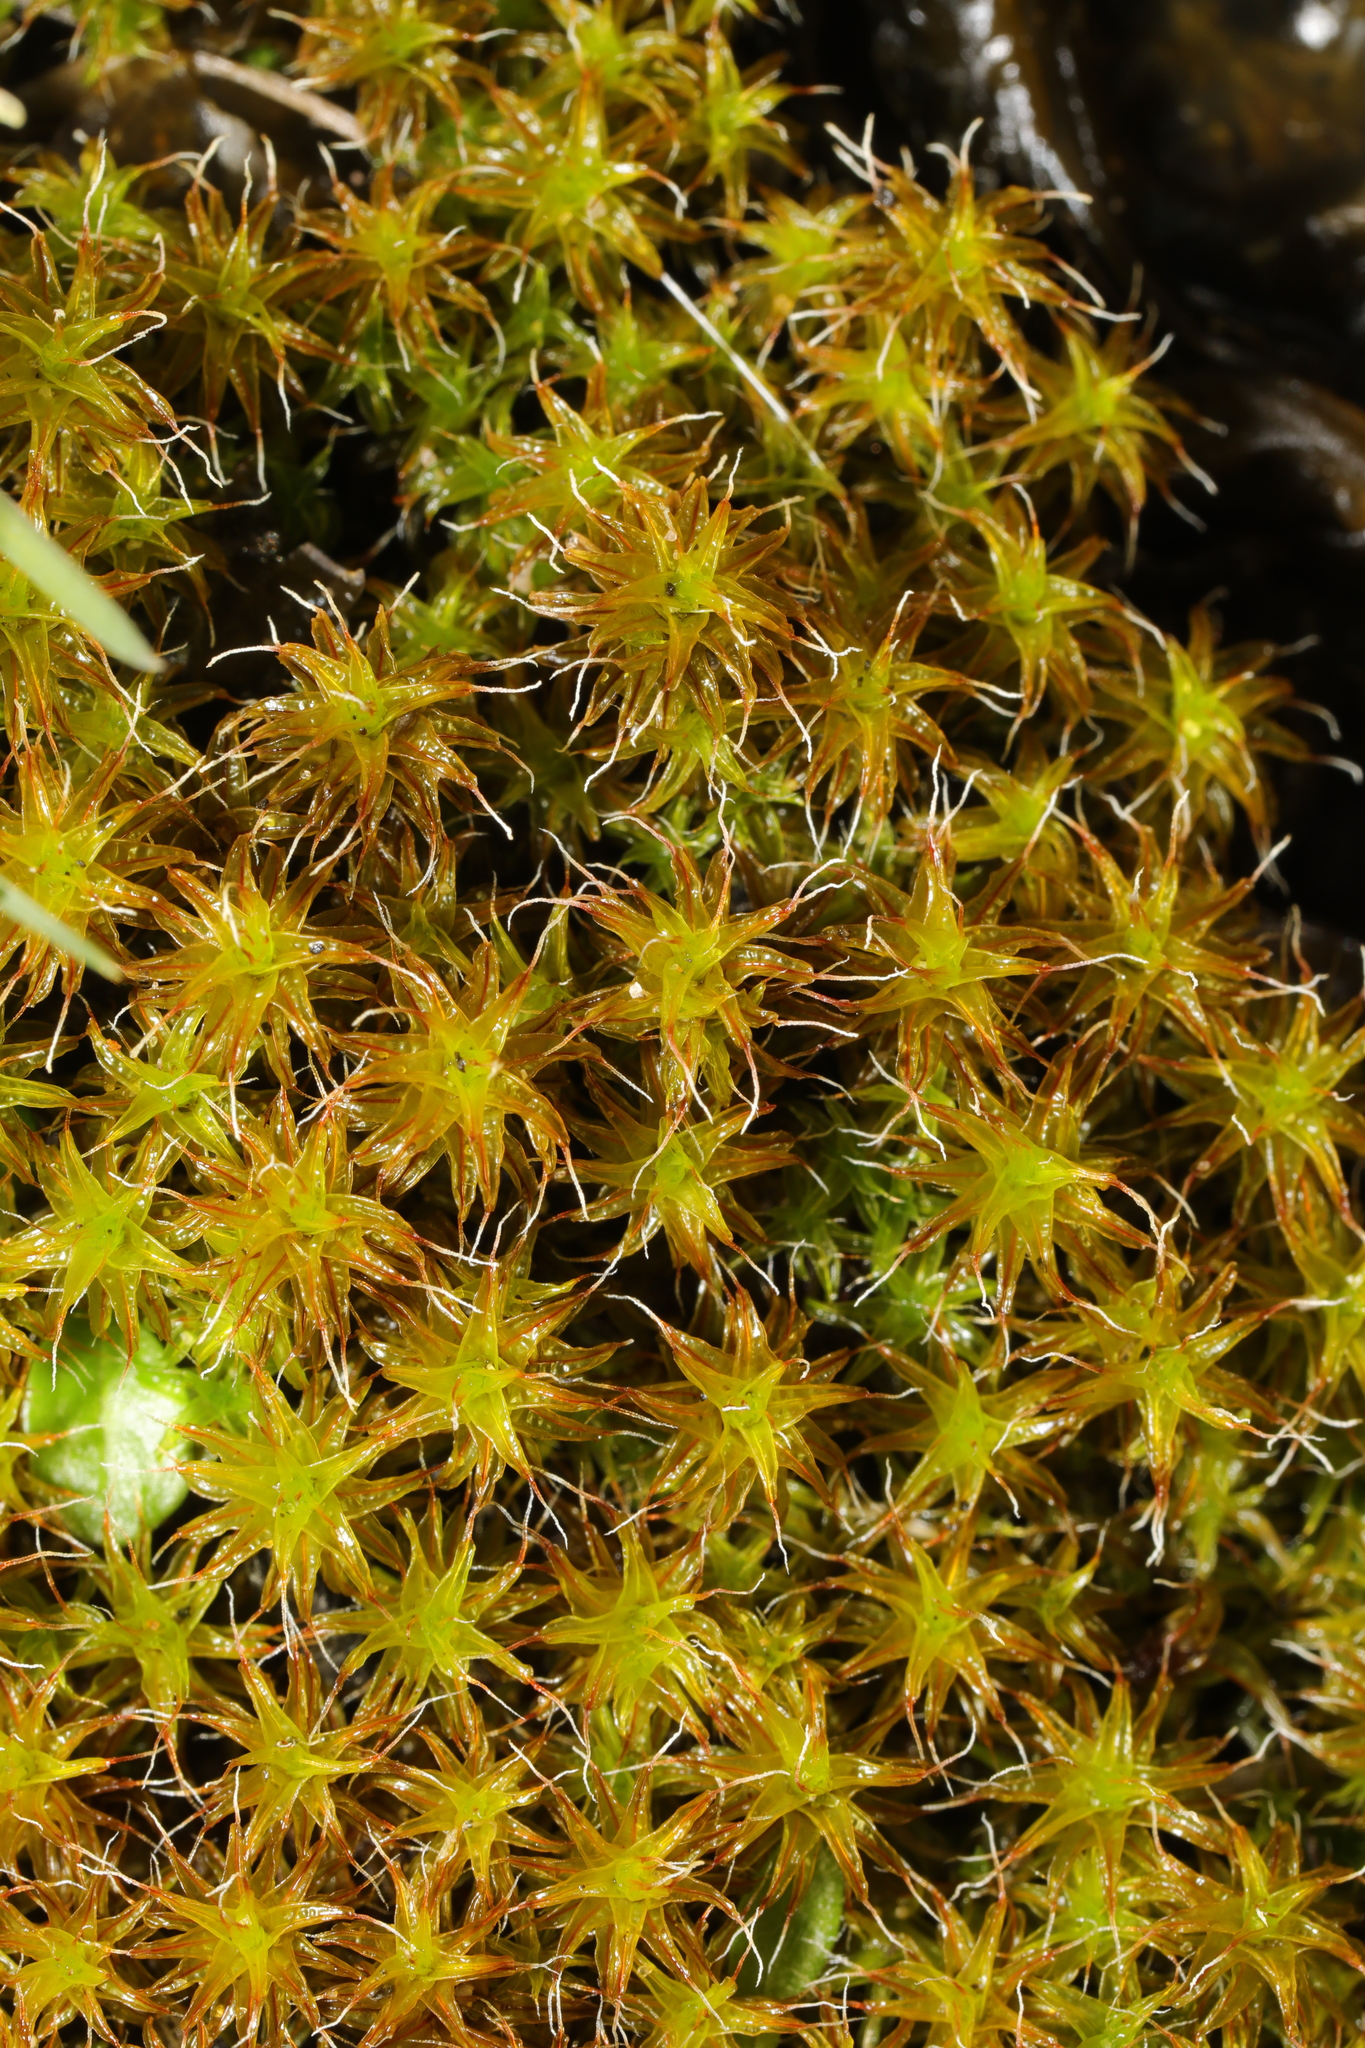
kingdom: Plantae
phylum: Bryophyta
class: Bryopsida
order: Pottiales
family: Pottiaceae
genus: Syntrichia
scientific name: Syntrichia ruralis
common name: Sidewalk screw moss
